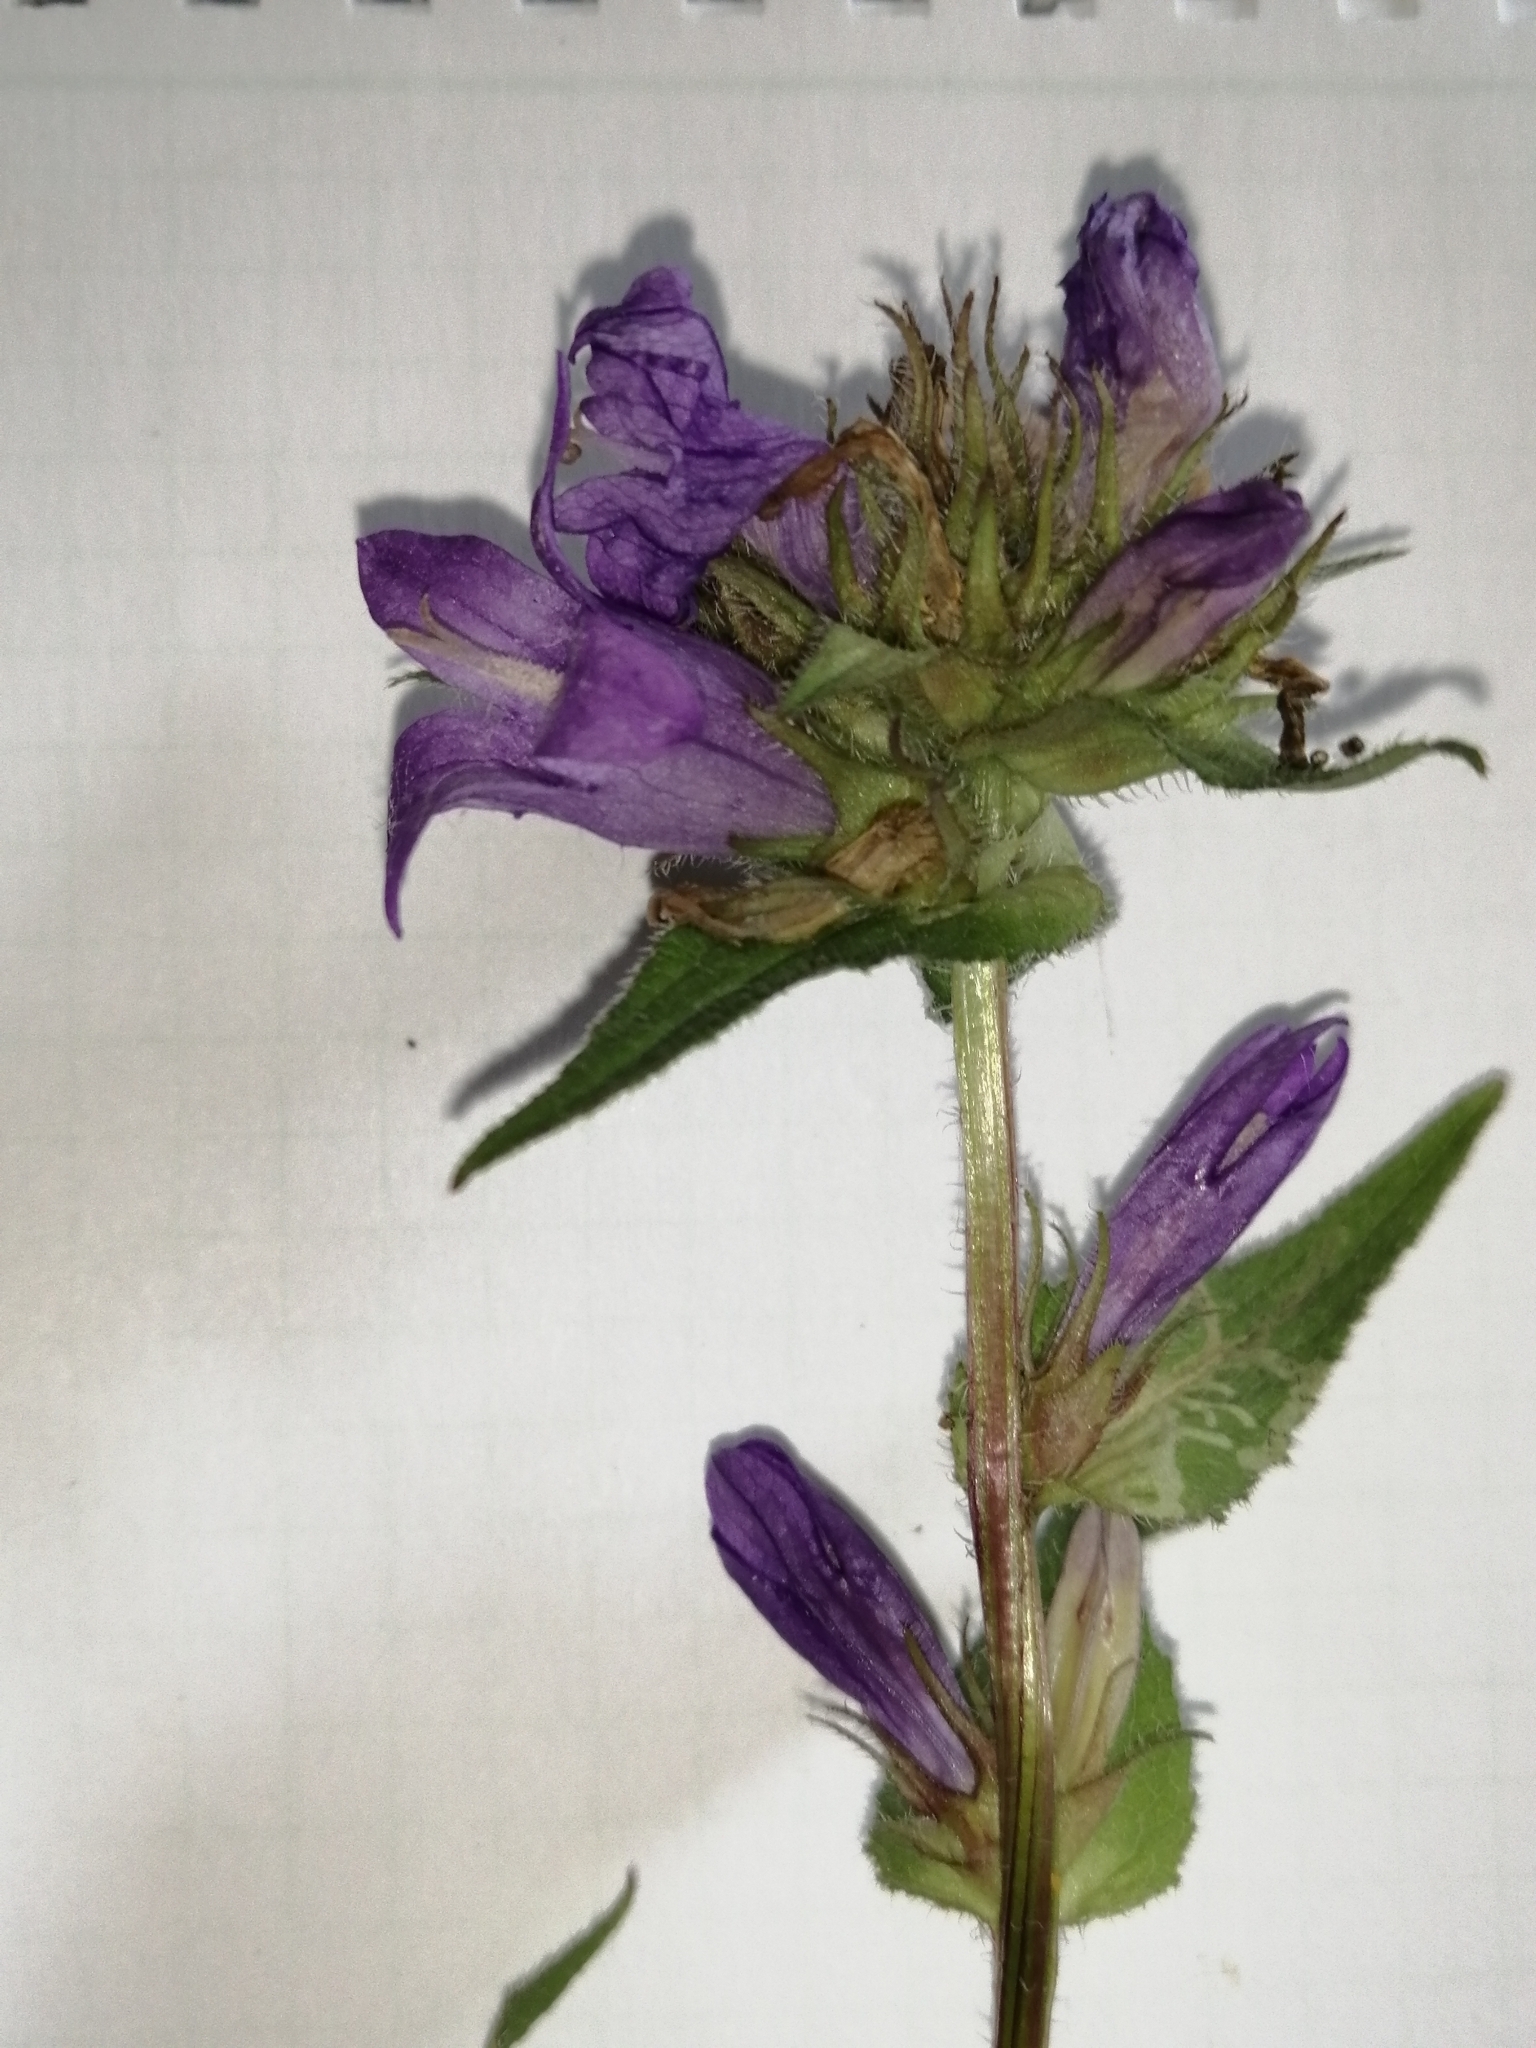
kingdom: Plantae
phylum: Tracheophyta
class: Magnoliopsida
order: Asterales
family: Campanulaceae
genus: Campanula
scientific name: Campanula glomerata
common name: Clustered bellflower
